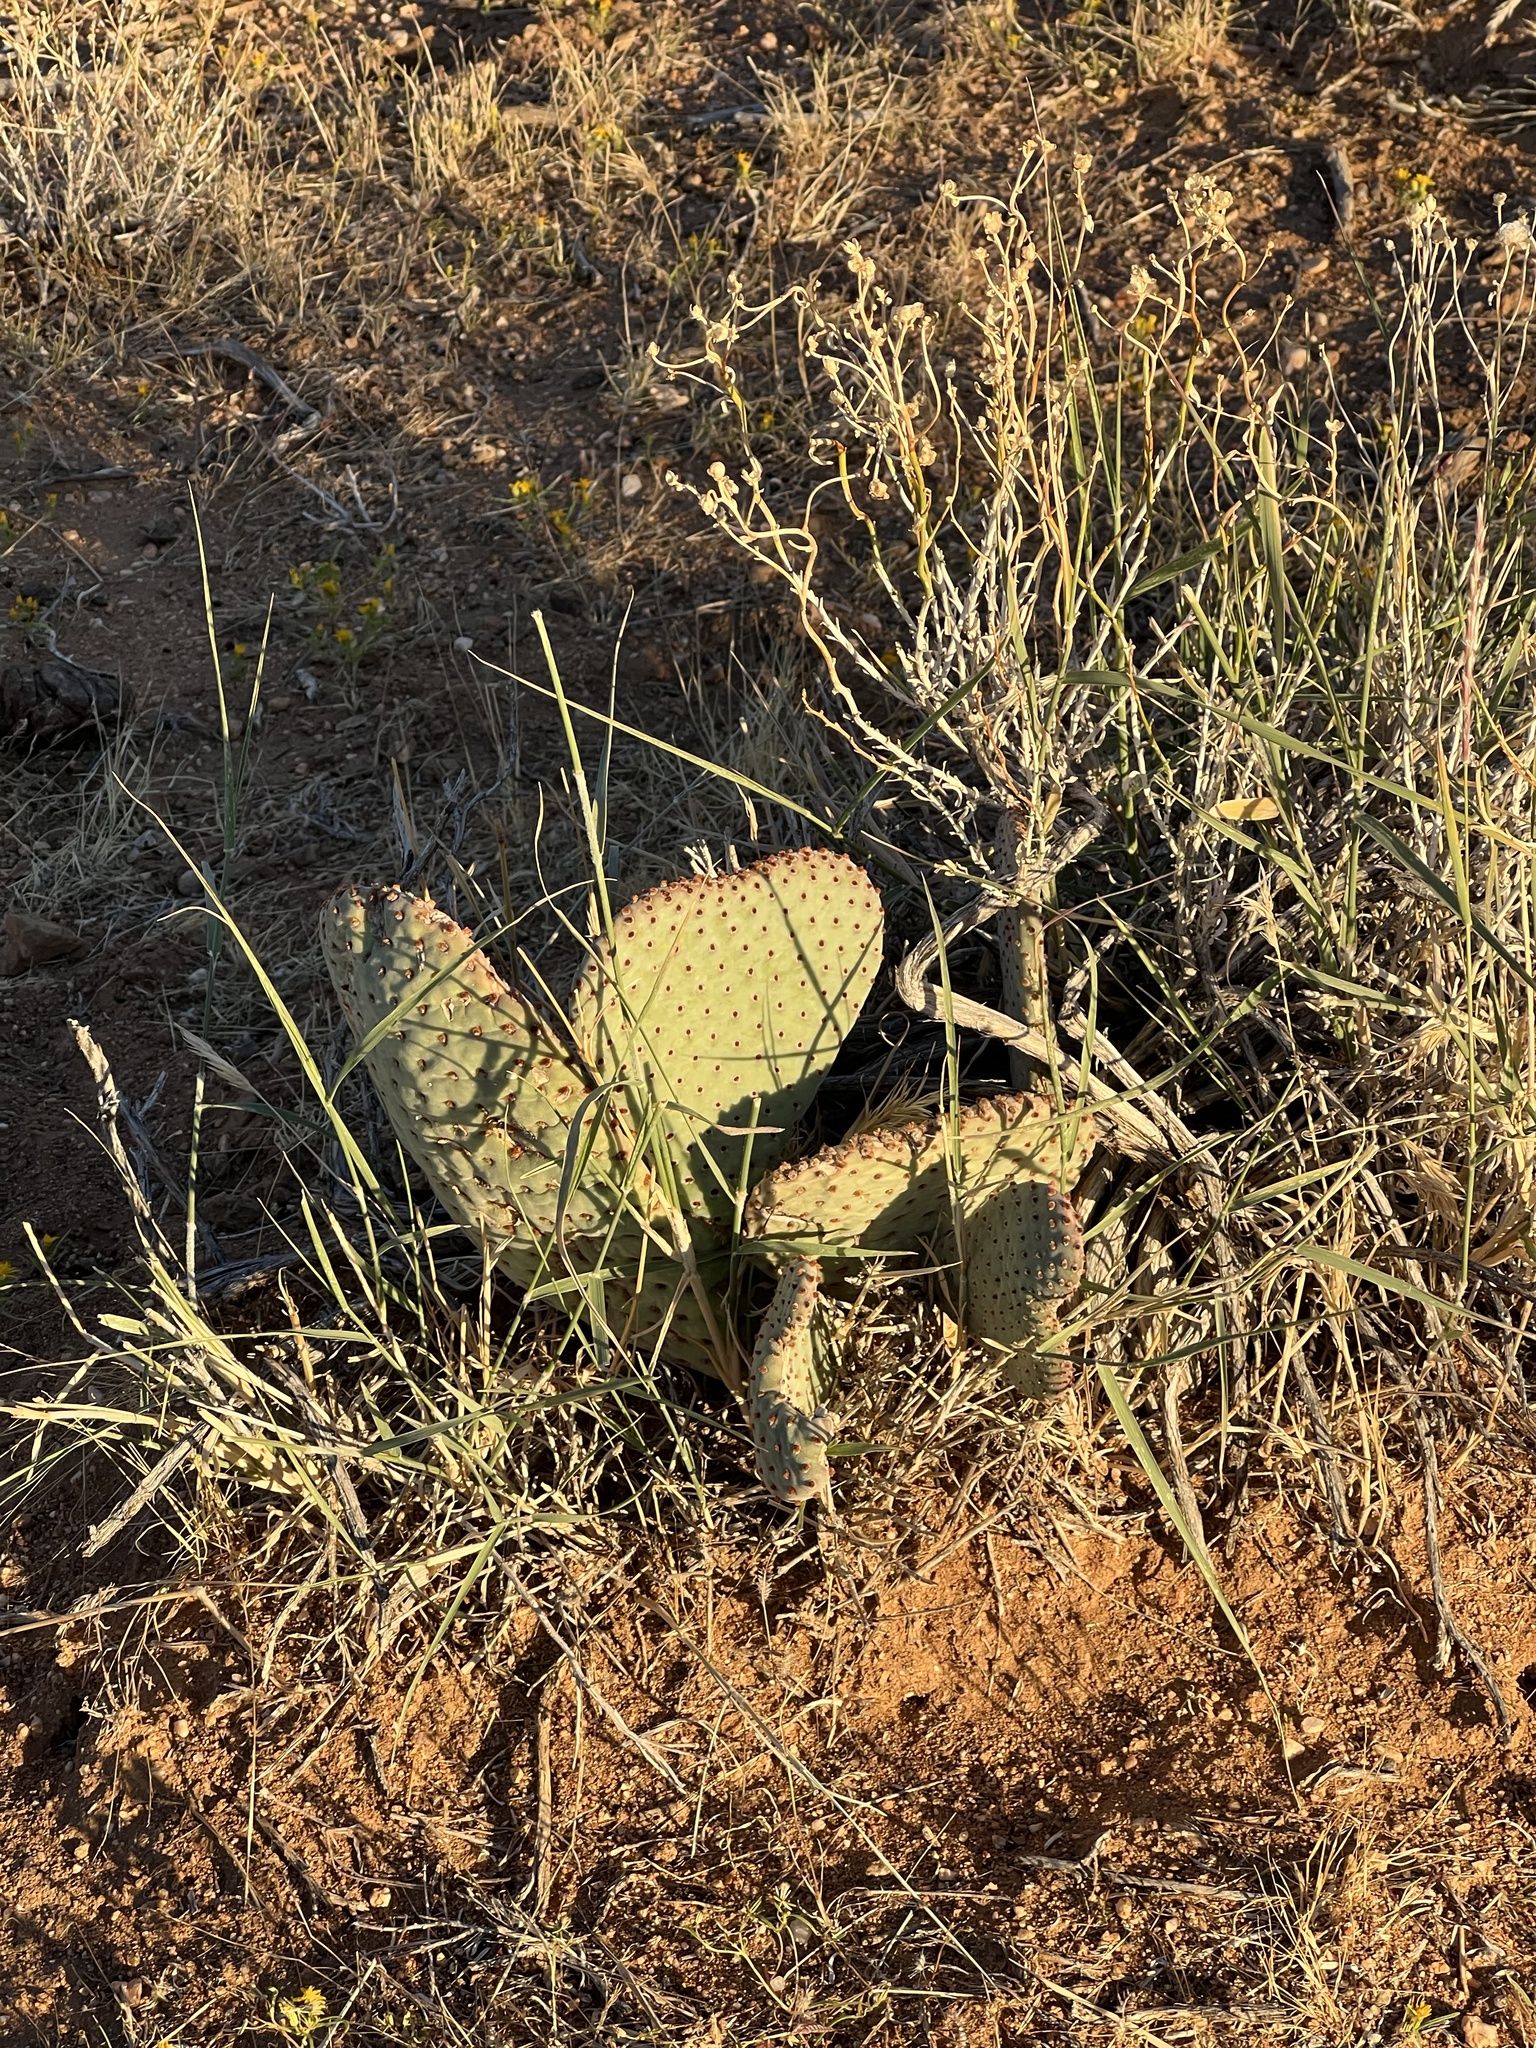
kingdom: Plantae
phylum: Tracheophyta
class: Magnoliopsida
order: Caryophyllales
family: Cactaceae
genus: Opuntia
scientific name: Opuntia basilaris
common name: Beavertail prickly-pear
